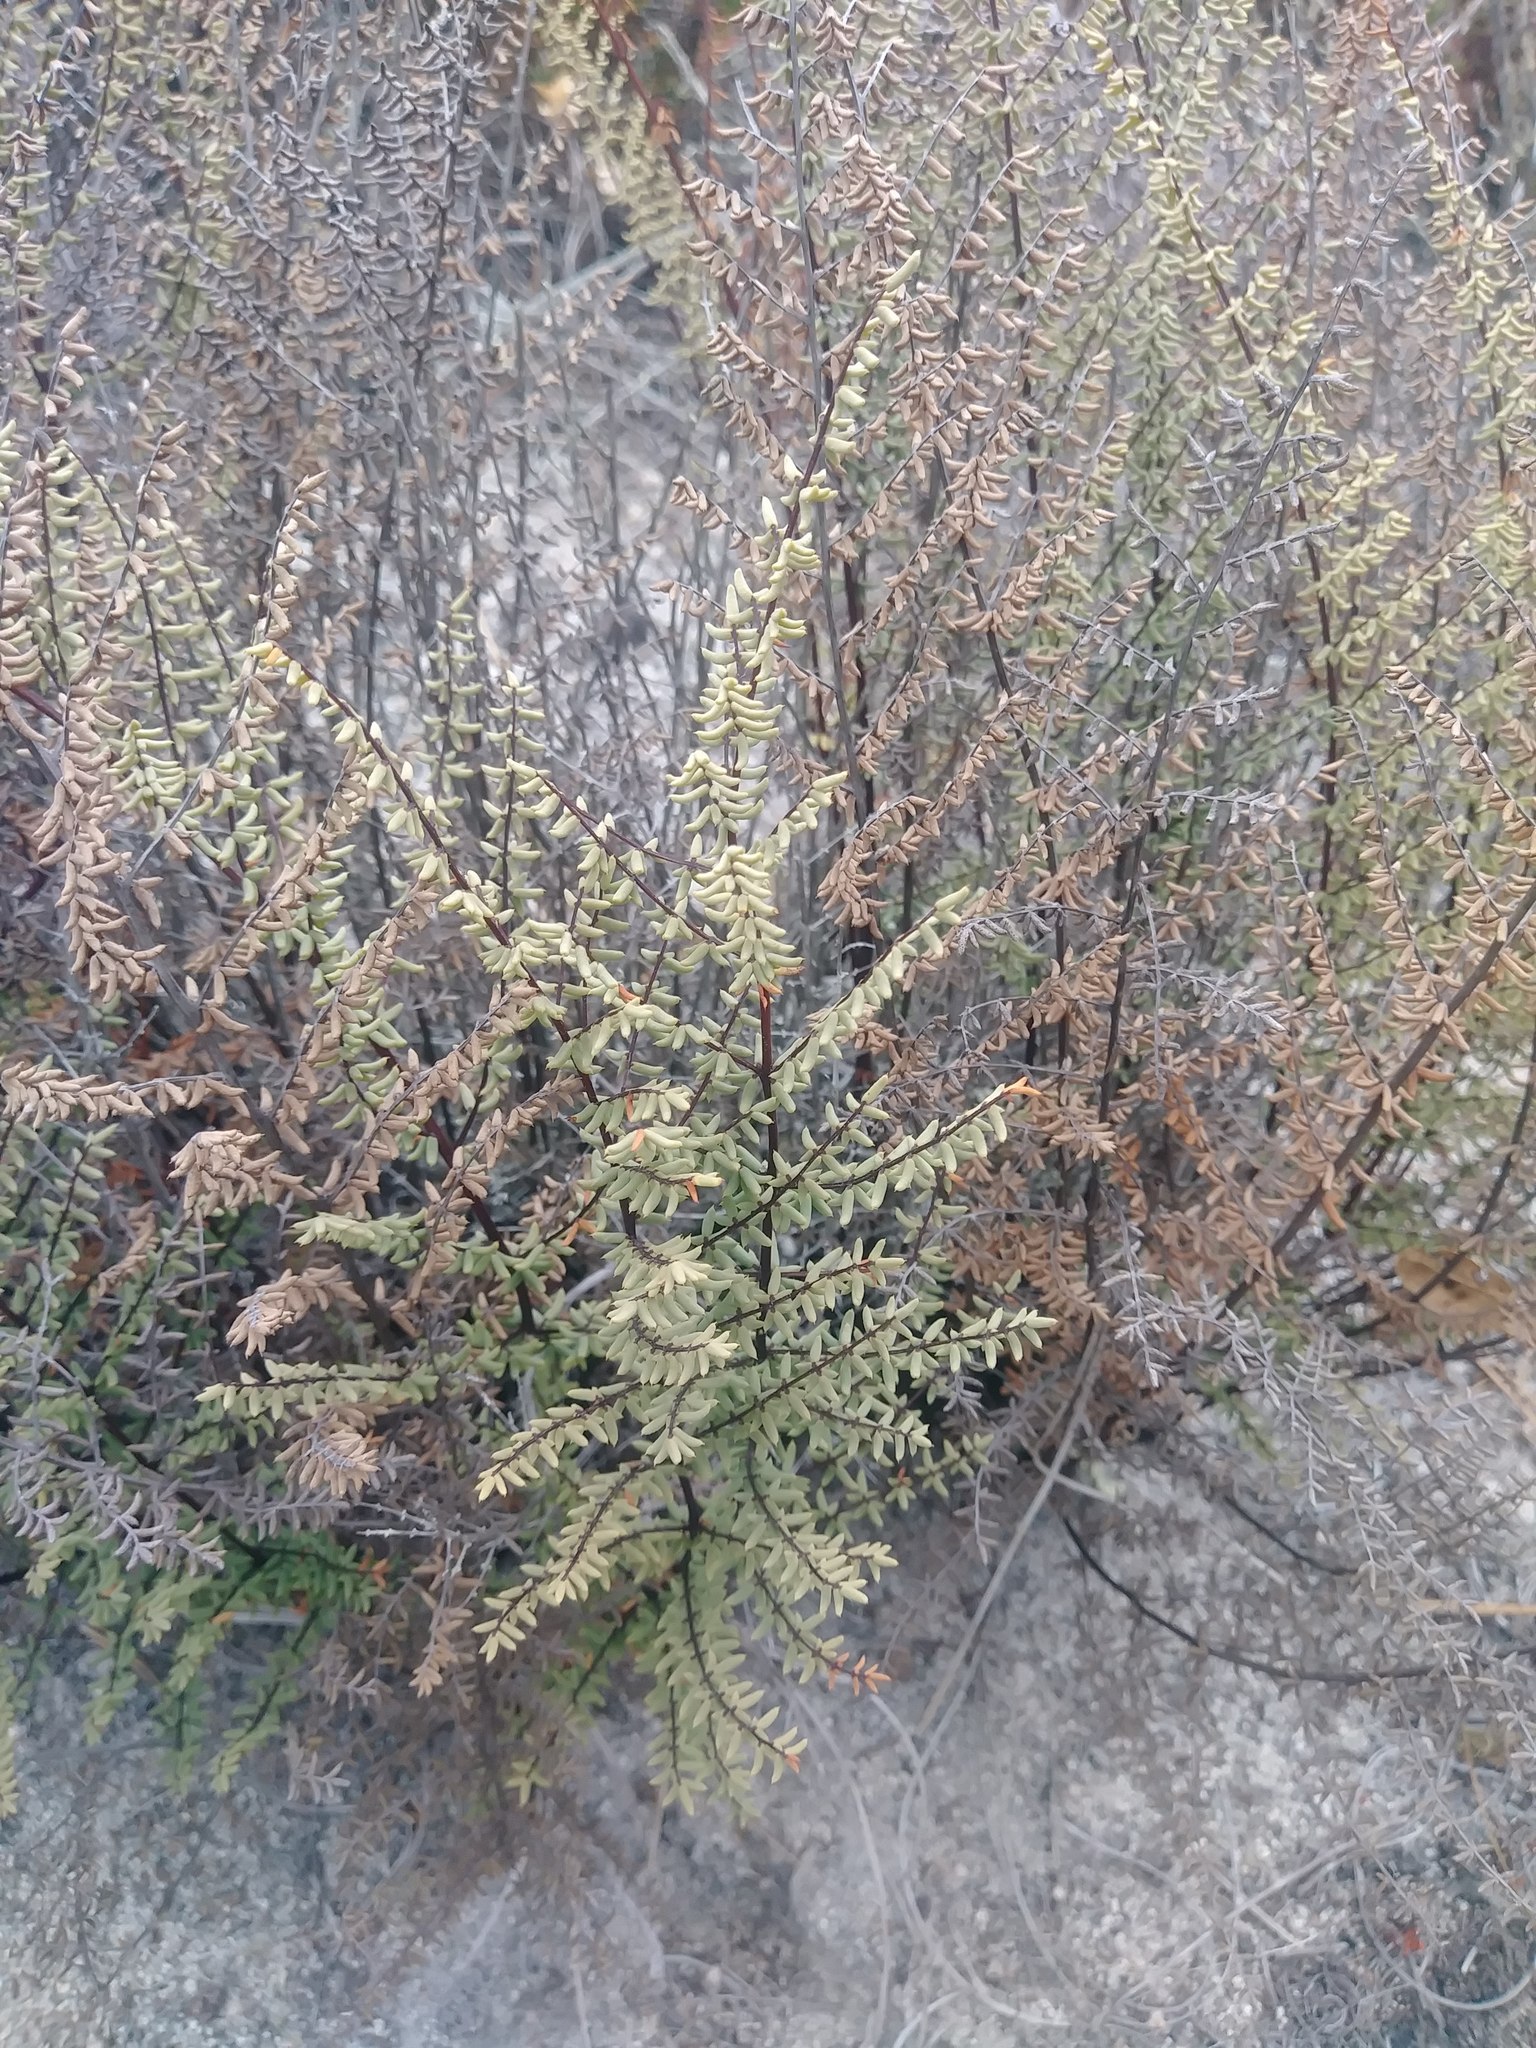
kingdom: Plantae
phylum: Tracheophyta
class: Polypodiopsida
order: Polypodiales
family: Pteridaceae
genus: Pellaea
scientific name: Pellaea mucronata
